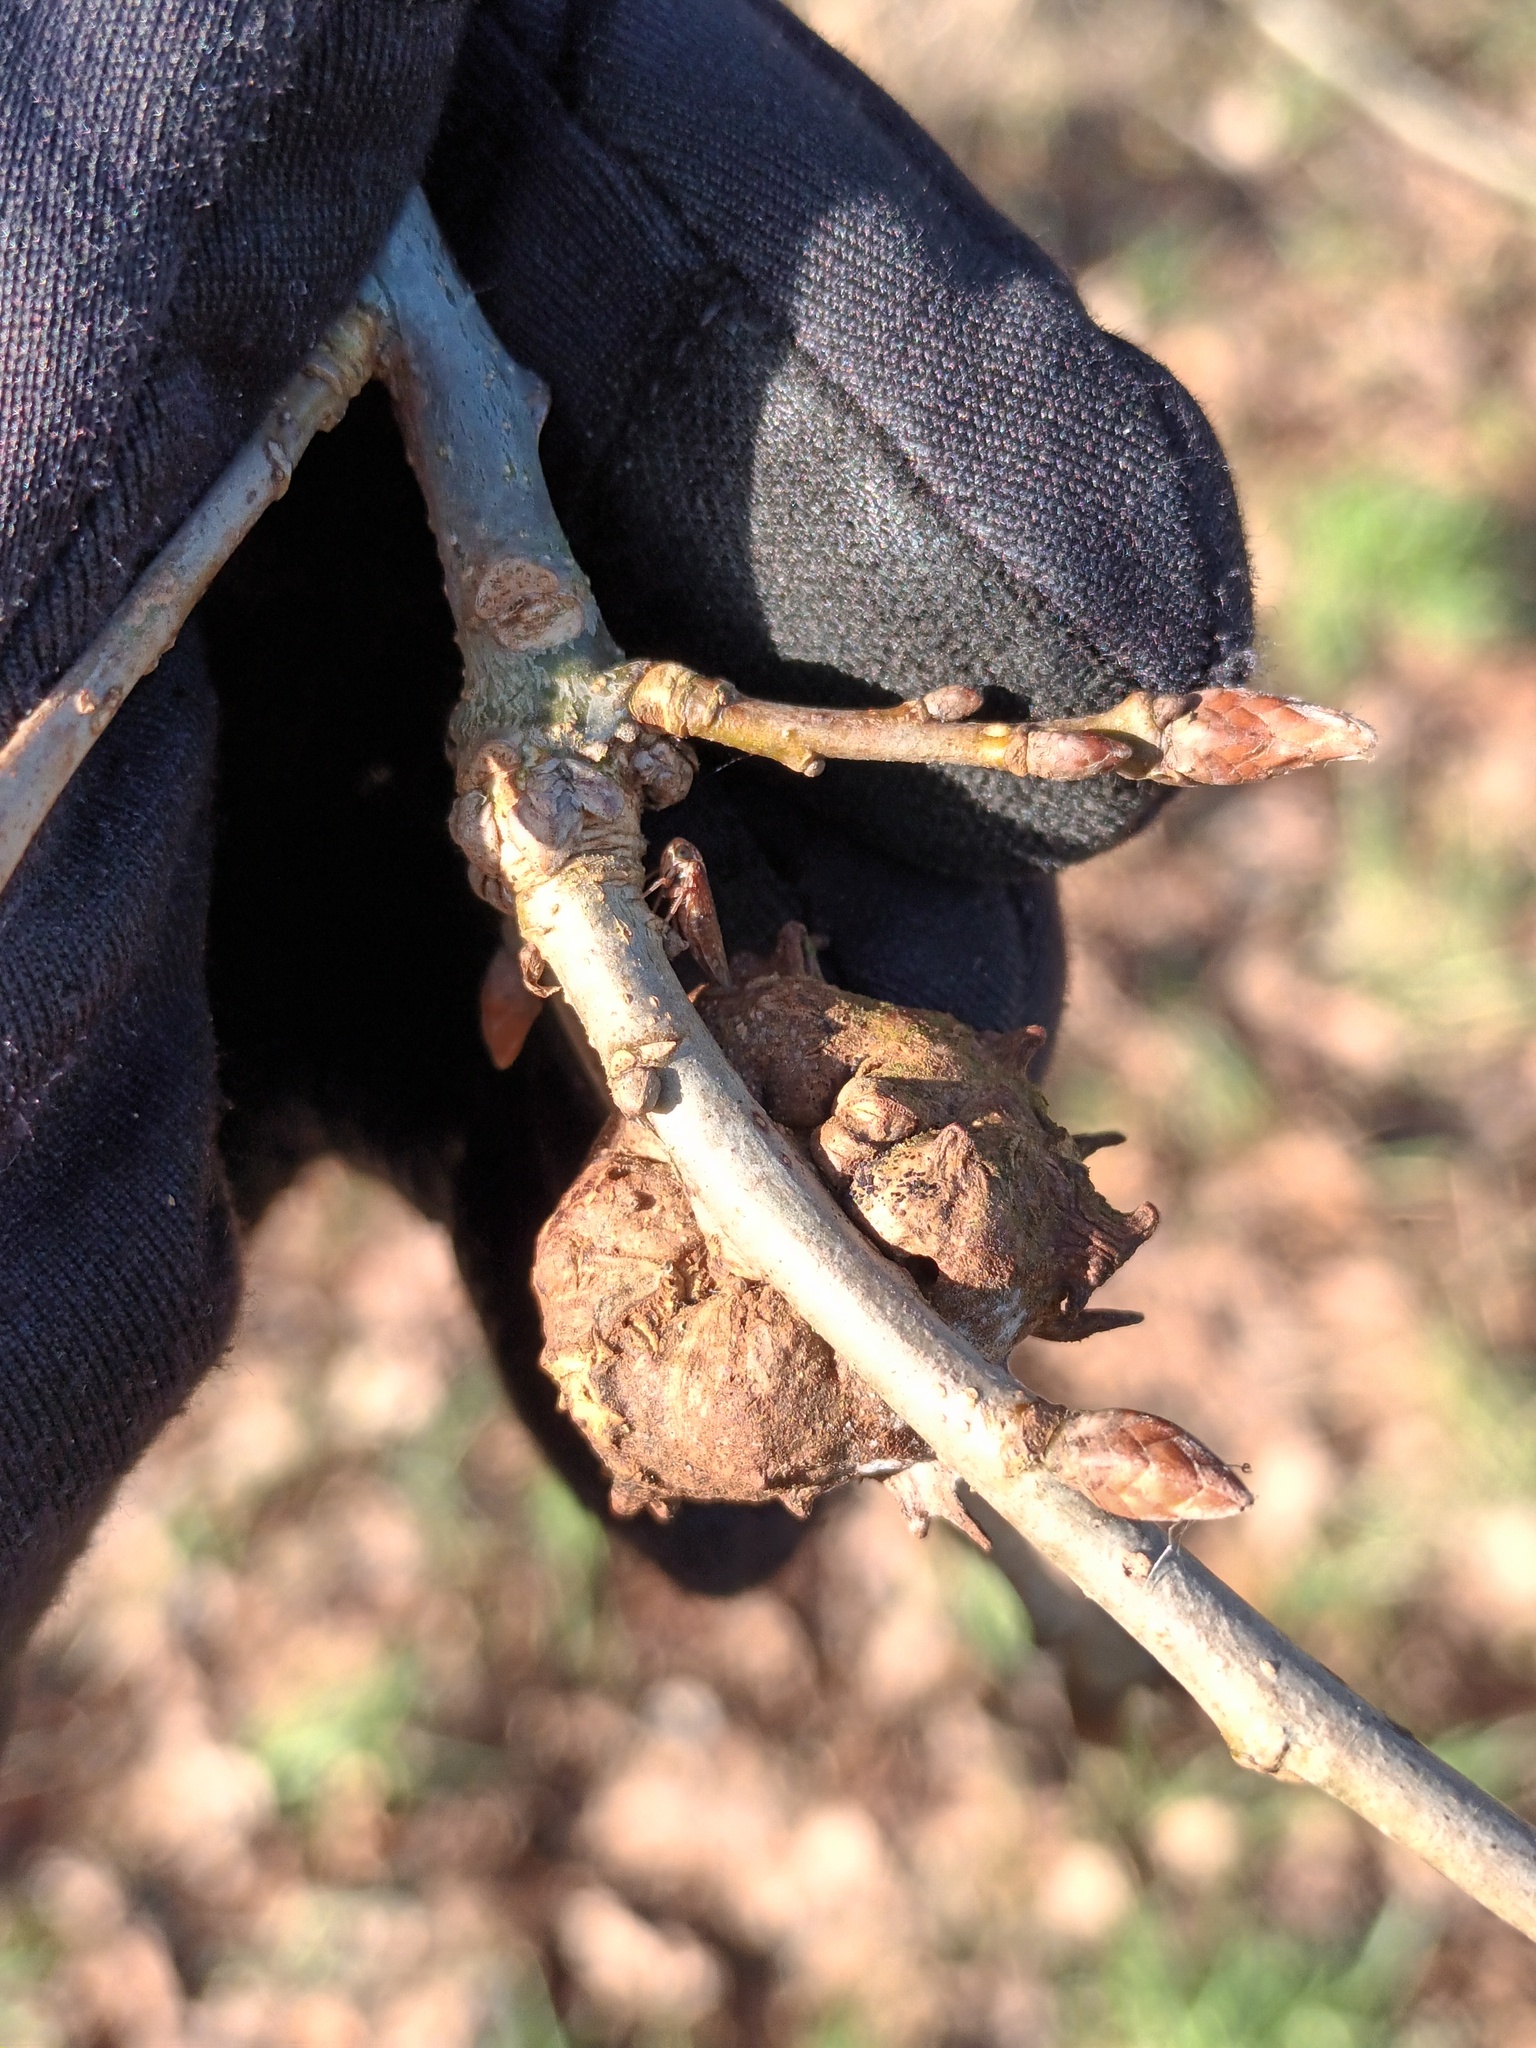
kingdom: Animalia
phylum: Arthropoda
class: Insecta
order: Hymenoptera
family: Cynipidae
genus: Andricus
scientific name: Andricus coriarius
